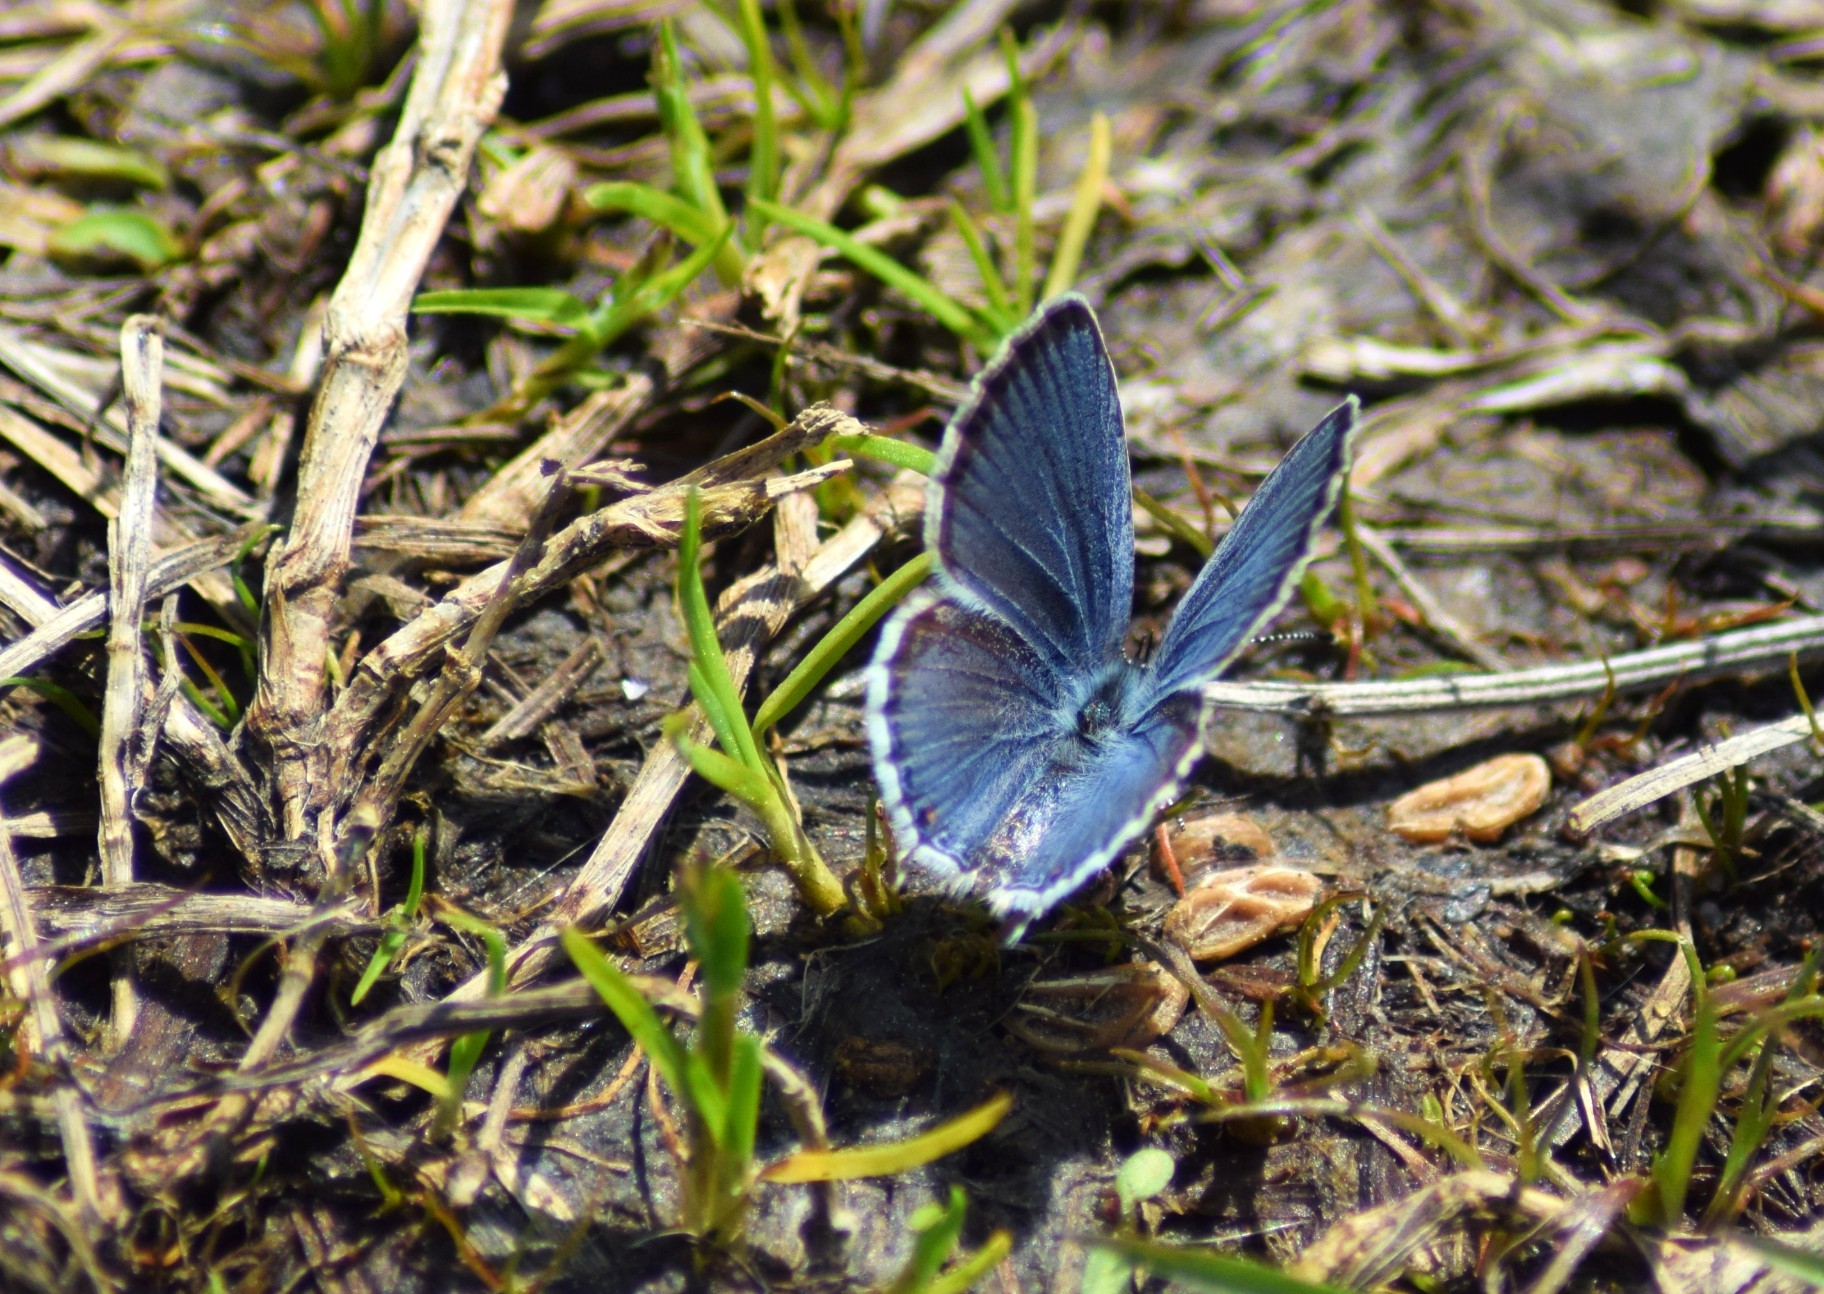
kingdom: Animalia
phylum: Arthropoda
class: Insecta
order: Lepidoptera
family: Lycaenidae
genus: Elkalyce
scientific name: Elkalyce comyntas
